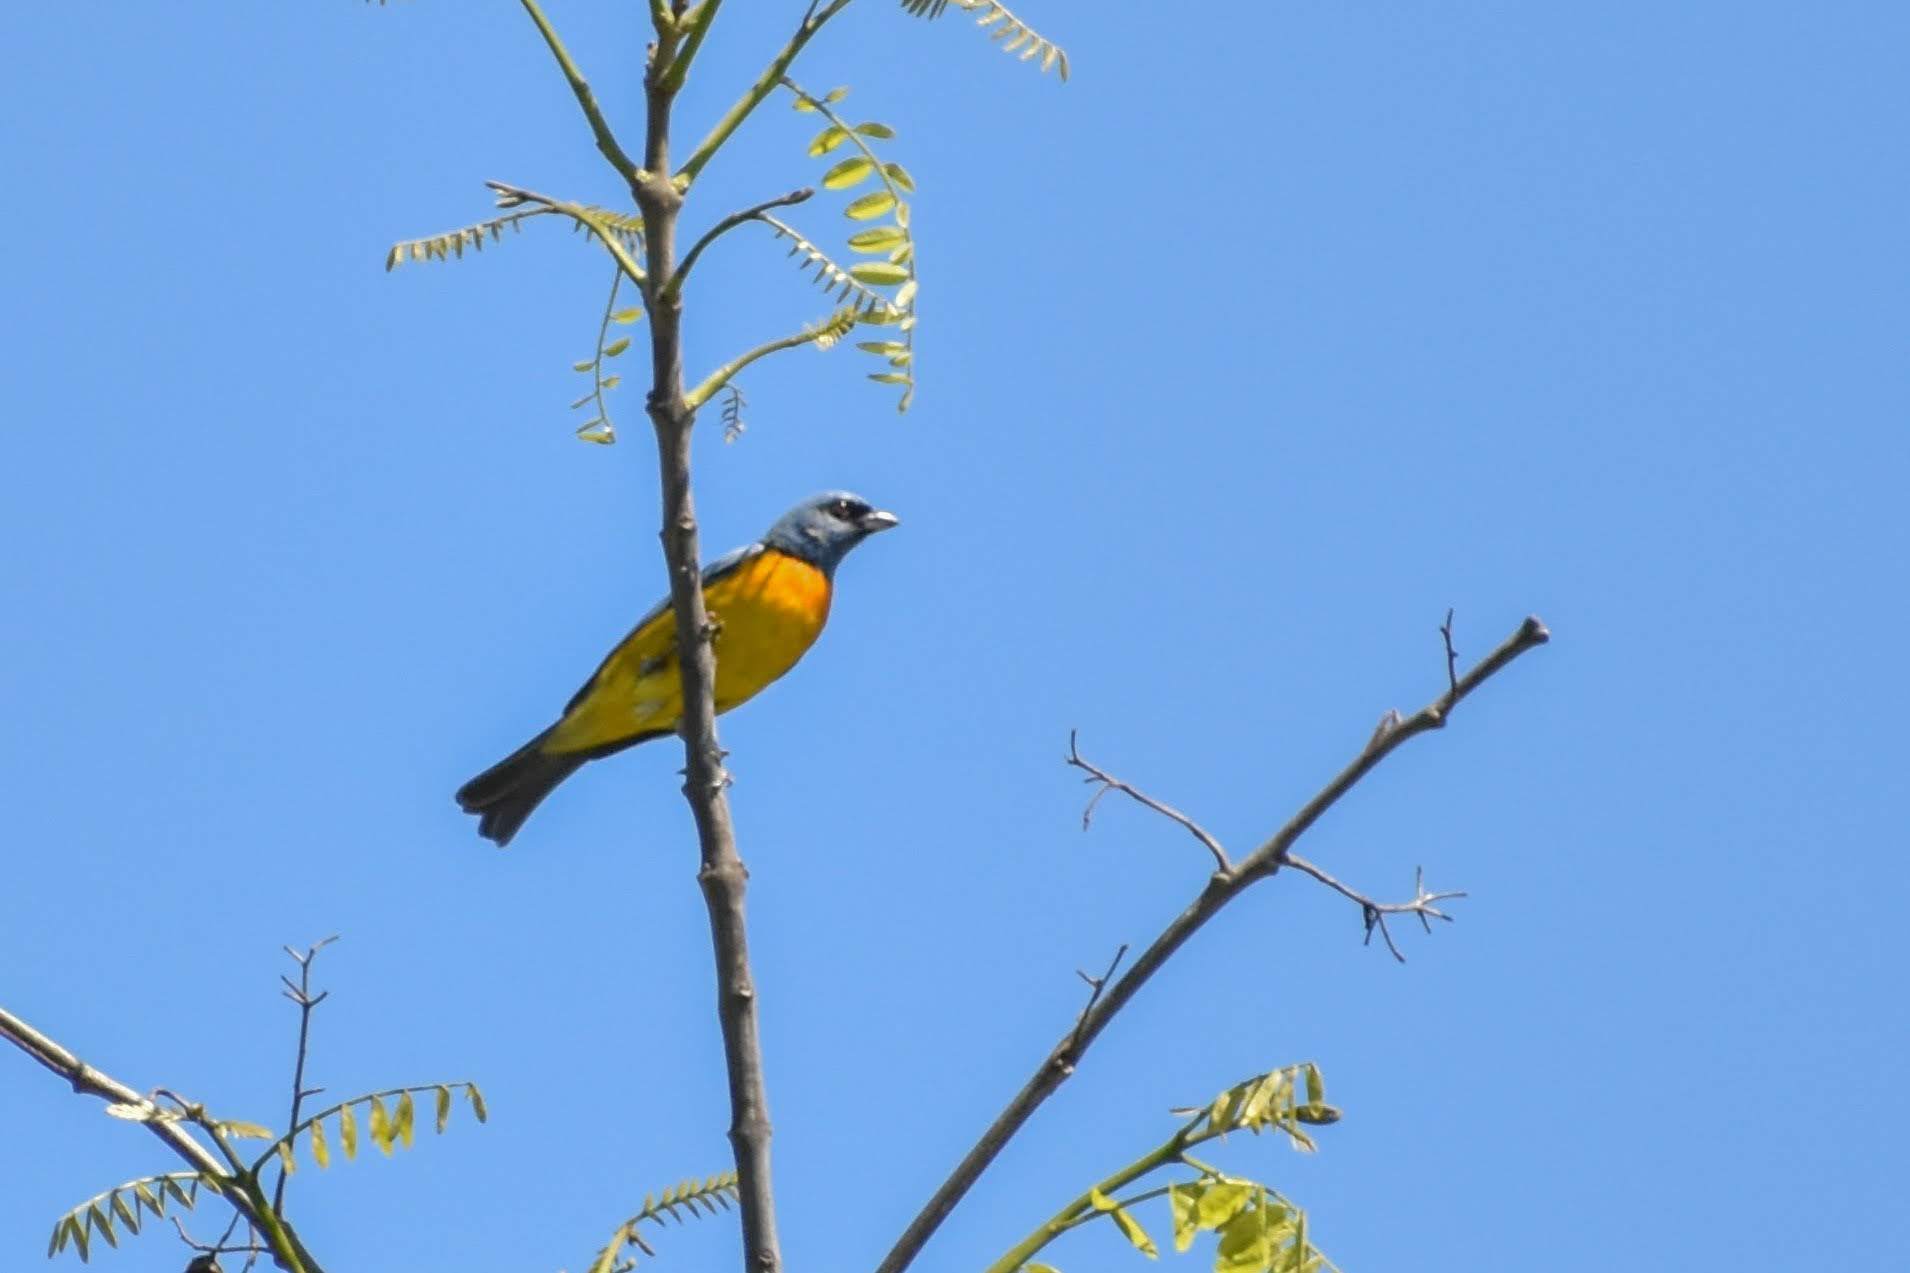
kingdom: Animalia
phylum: Chordata
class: Aves
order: Passeriformes
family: Thraupidae
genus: Rauenia
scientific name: Rauenia bonariensis
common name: Blue-and-yellow tanager
